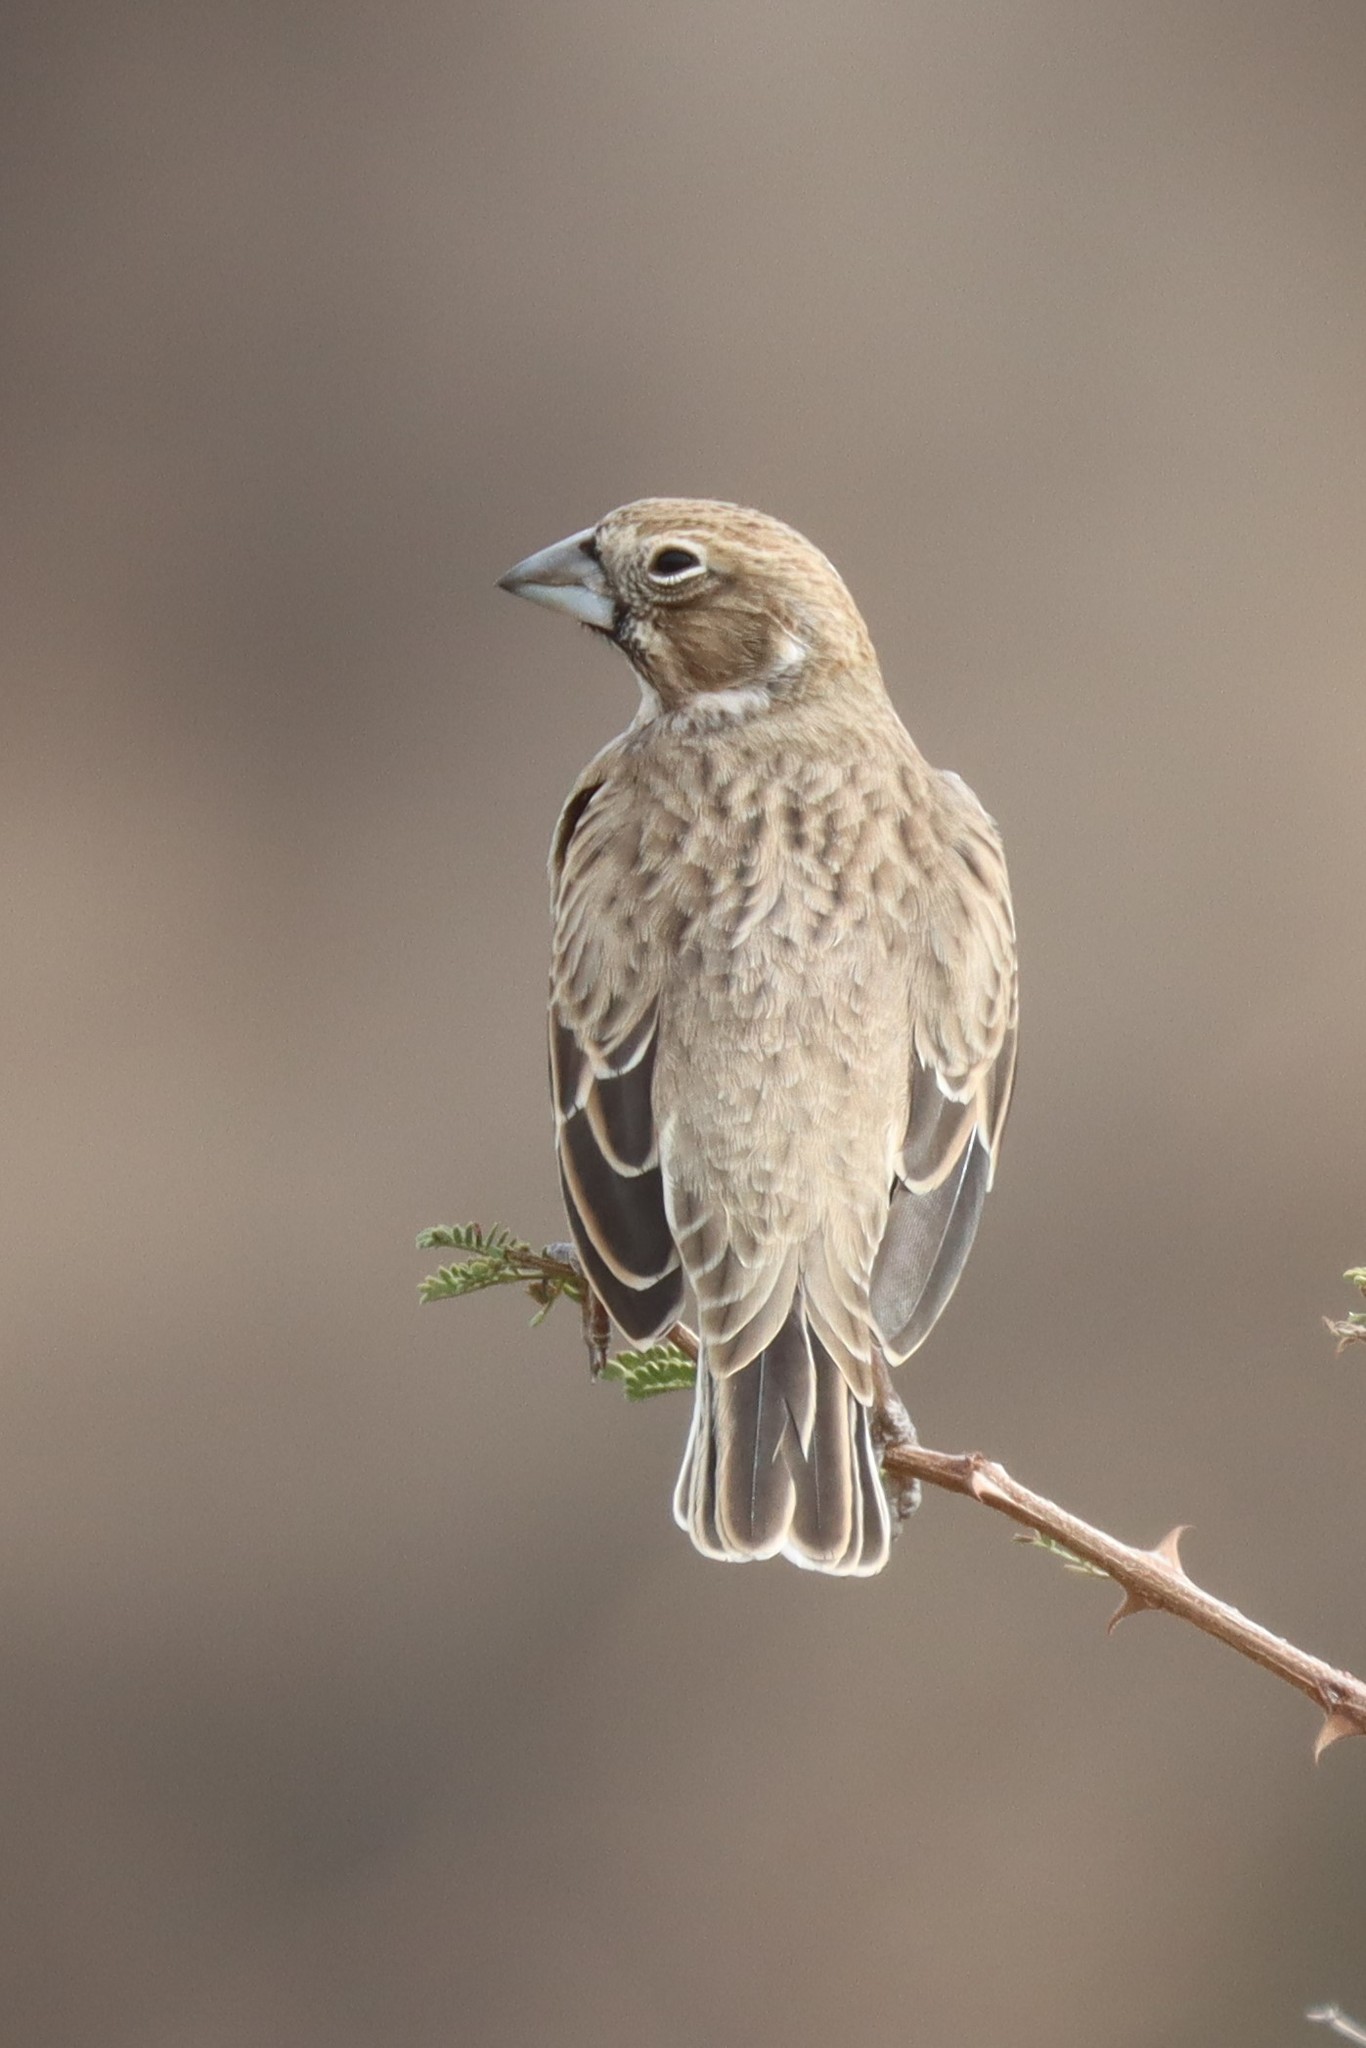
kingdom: Animalia
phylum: Chordata
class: Aves
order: Passeriformes
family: Passerellidae
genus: Calamospiza
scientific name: Calamospiza melanocorys
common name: Lark bunting
